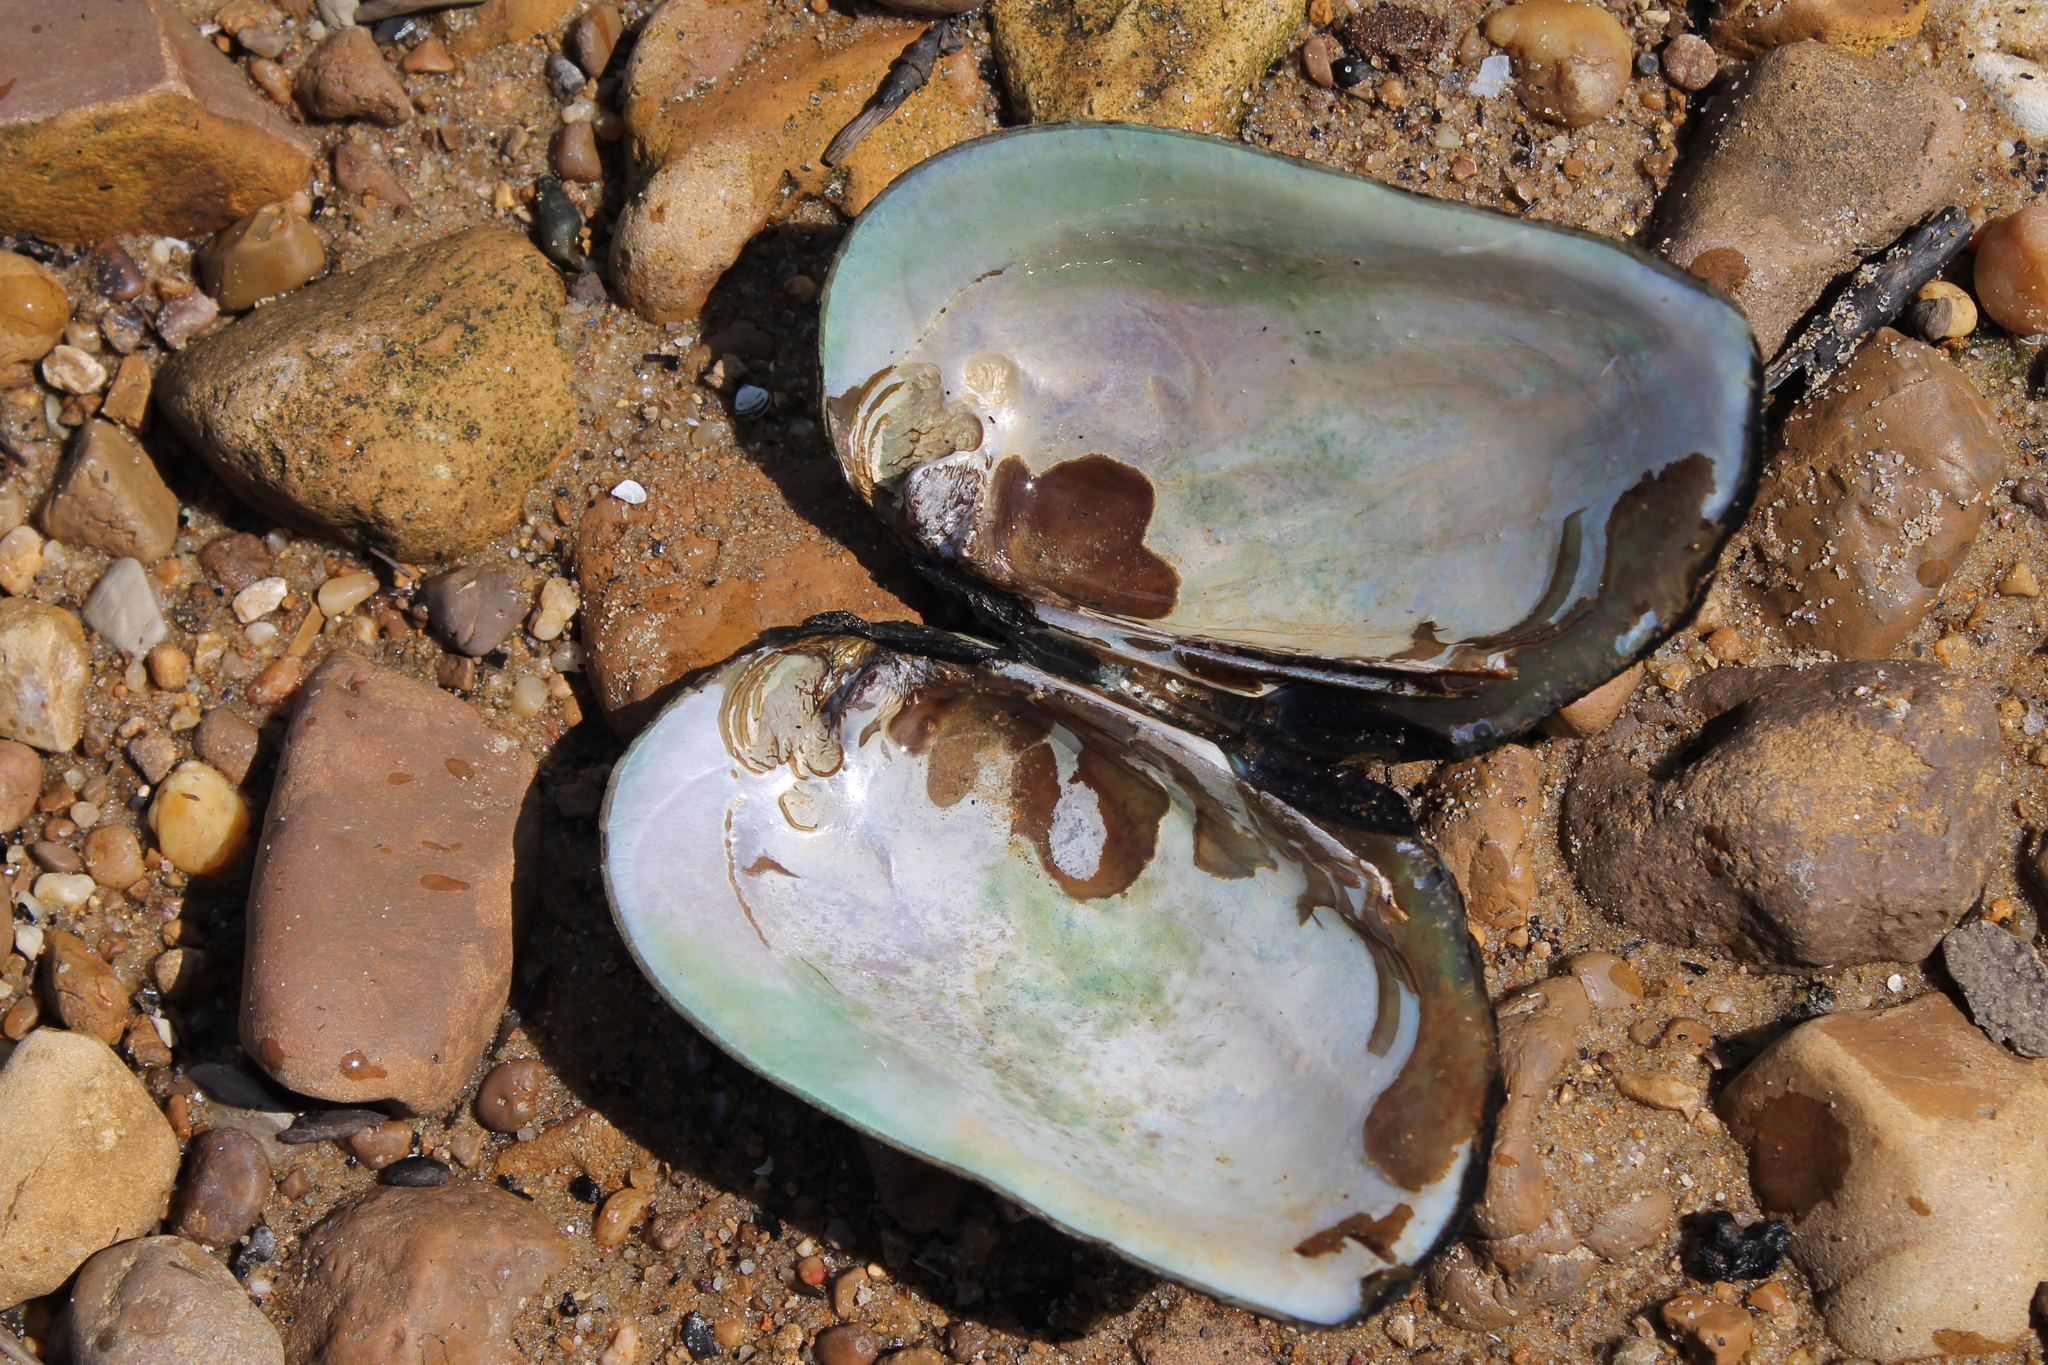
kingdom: Animalia
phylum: Mollusca
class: Bivalvia
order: Unionida
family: Unionidae
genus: Plectomerus
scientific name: Plectomerus dombeyanus
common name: Bankclimber
